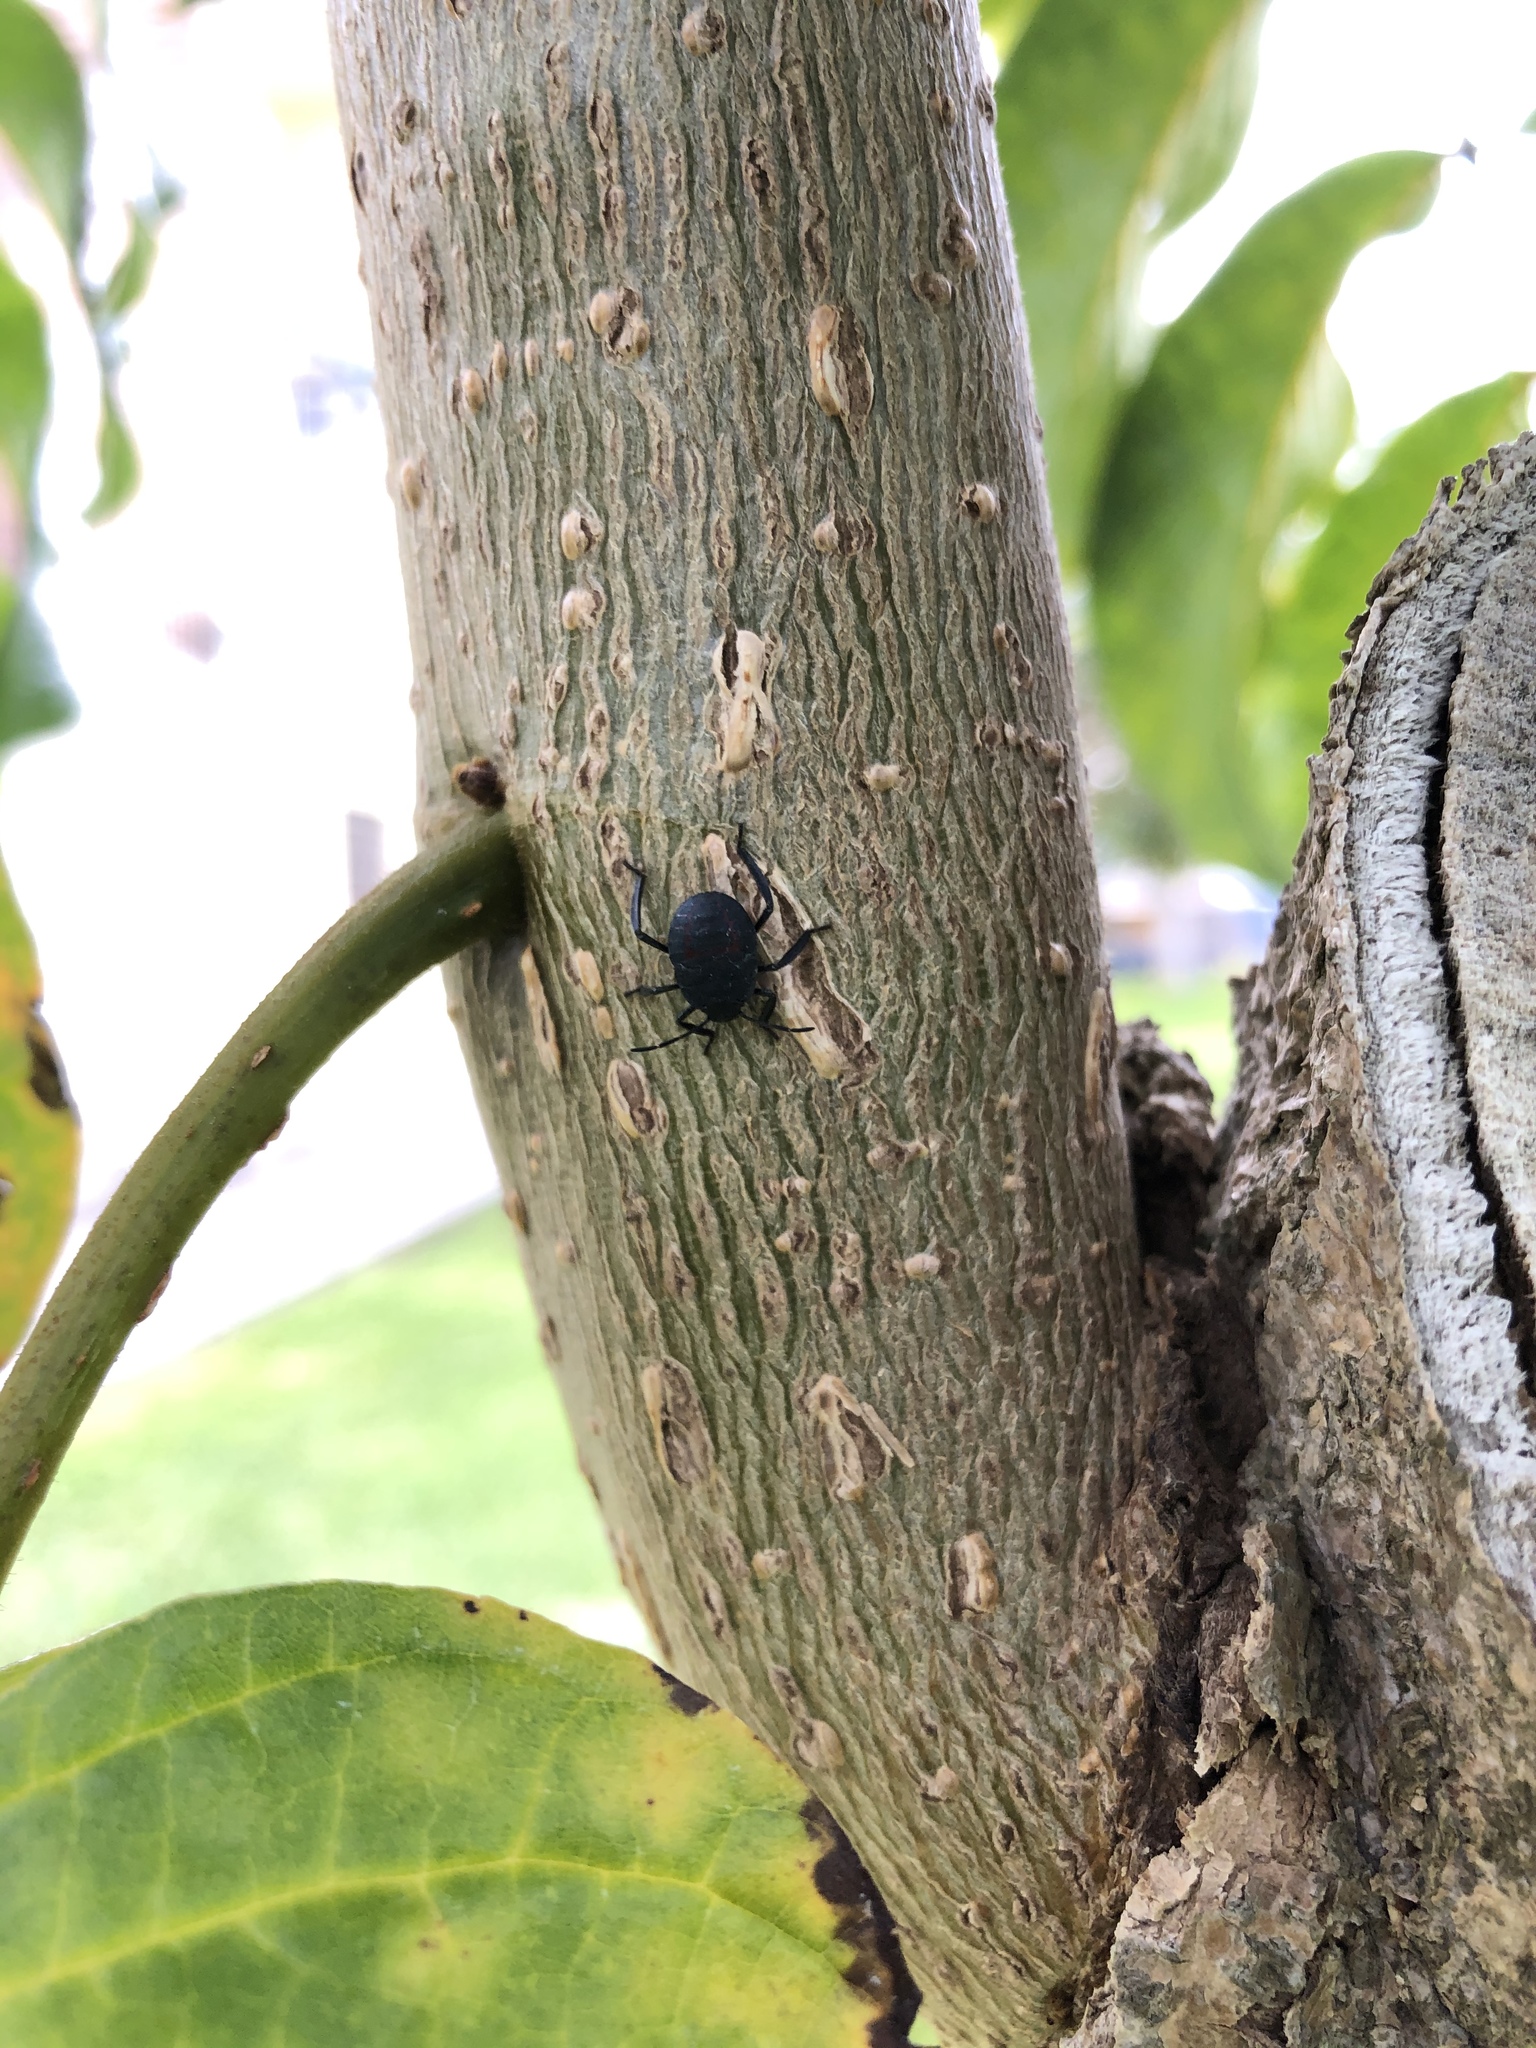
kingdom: Animalia
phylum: Arthropoda
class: Insecta
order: Hemiptera
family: Pentatomidae
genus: Pellaea
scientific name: Pellaea stictica
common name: Stink bug
